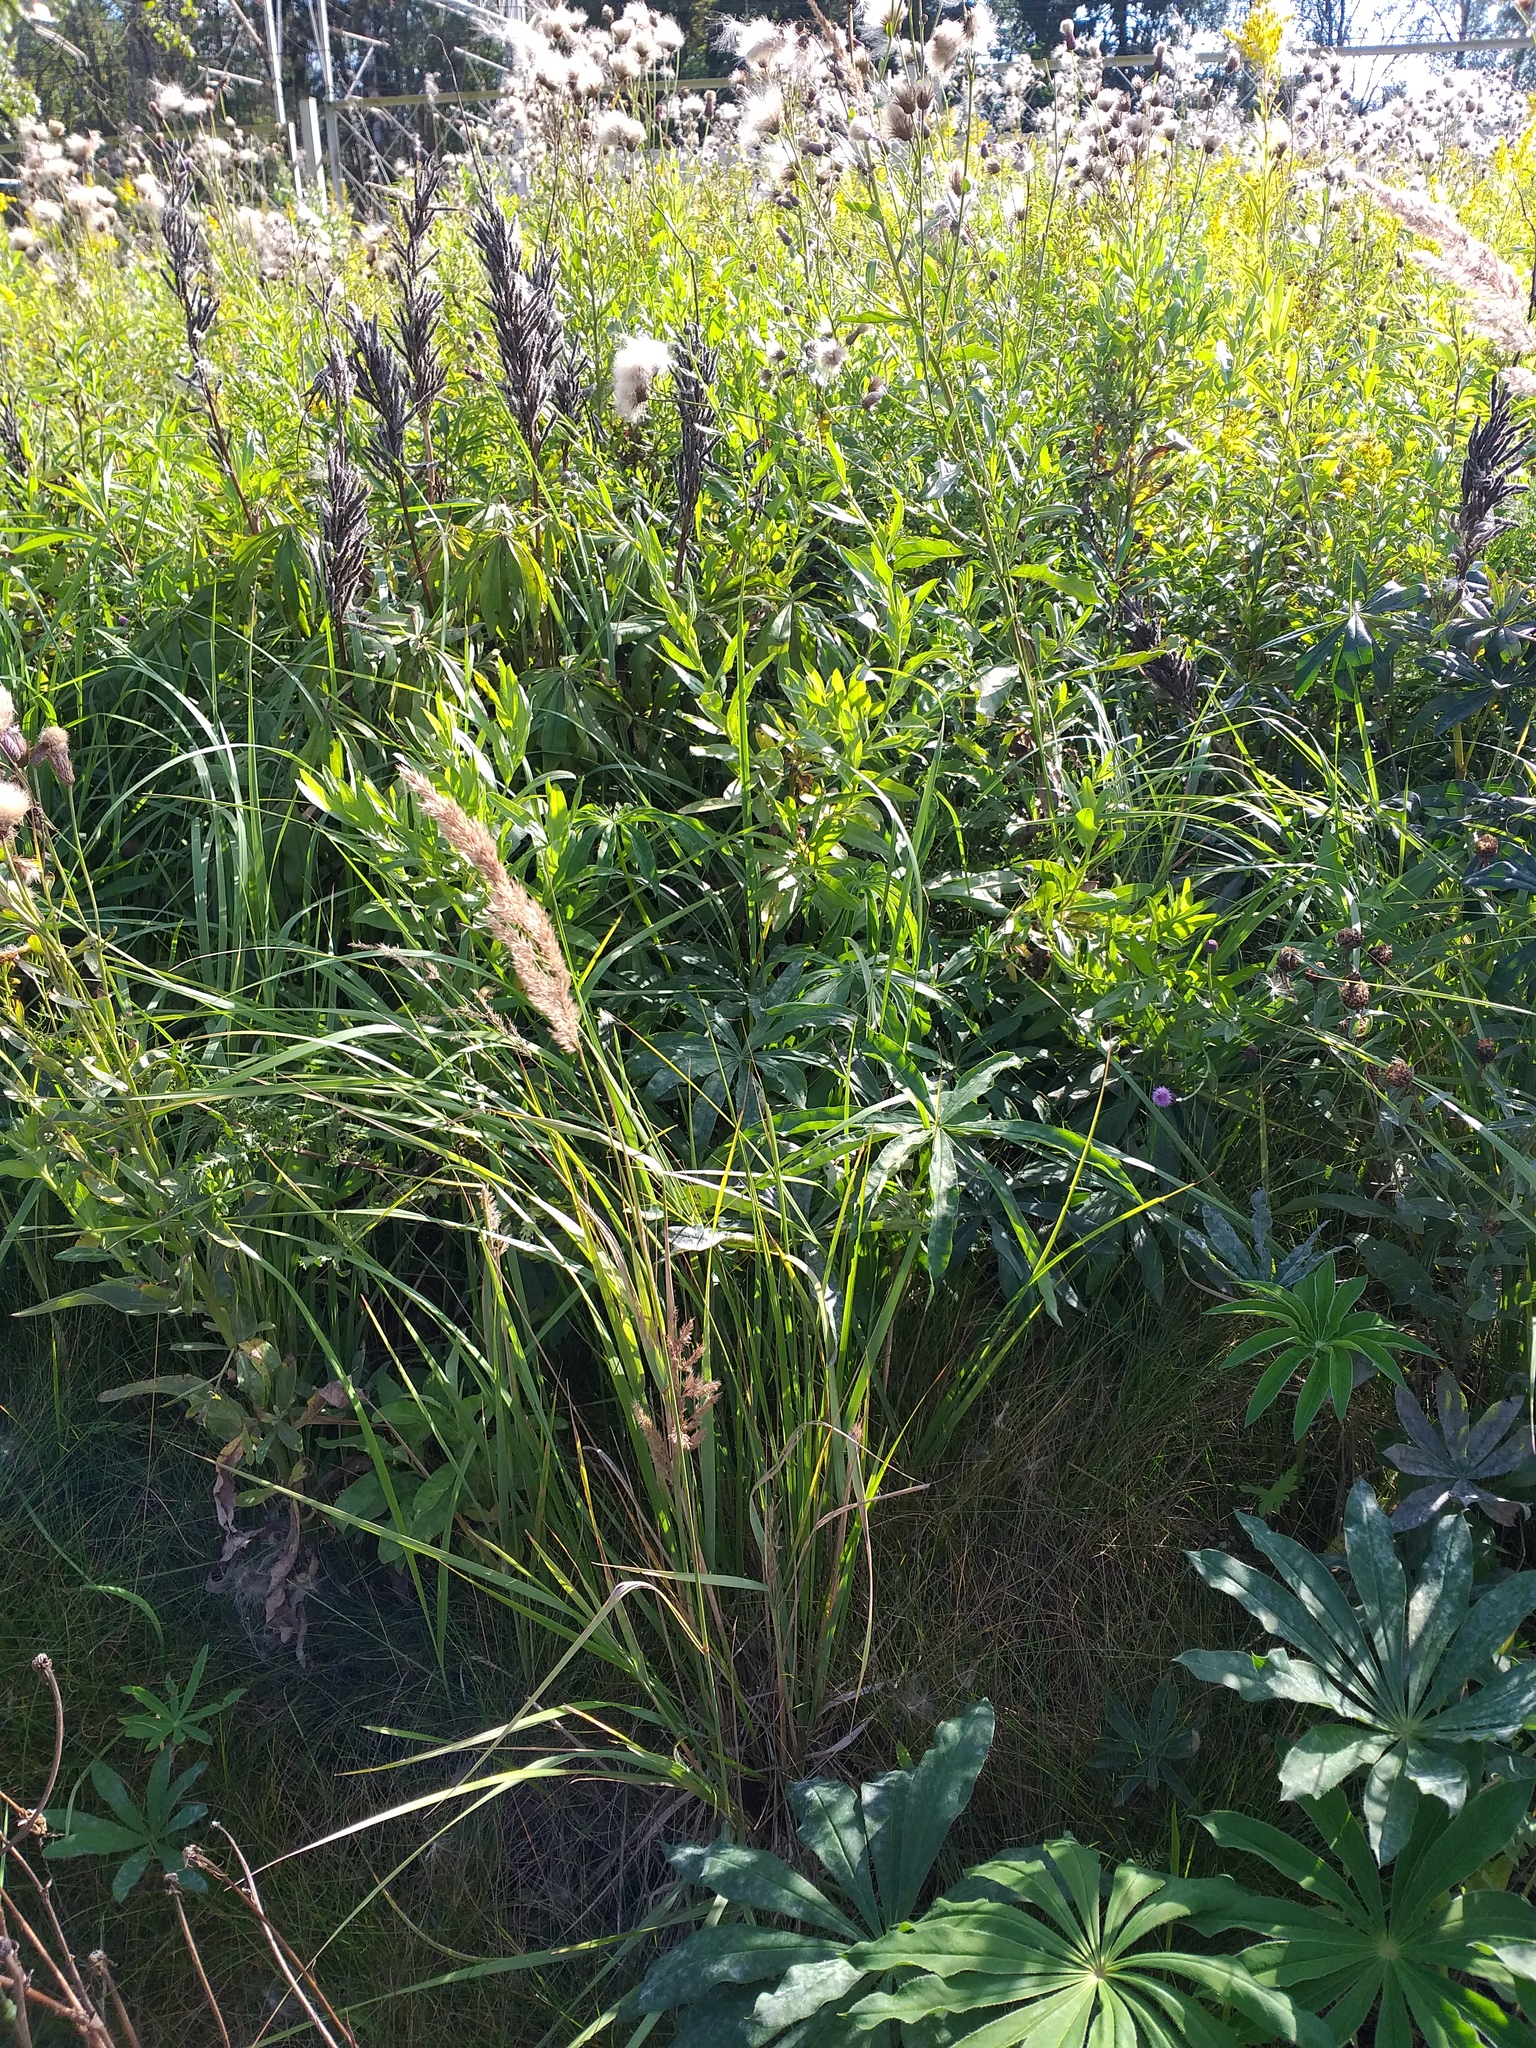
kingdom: Plantae
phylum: Tracheophyta
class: Liliopsida
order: Poales
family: Poaceae
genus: Calamagrostis
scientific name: Calamagrostis epigejos
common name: Wood small-reed
